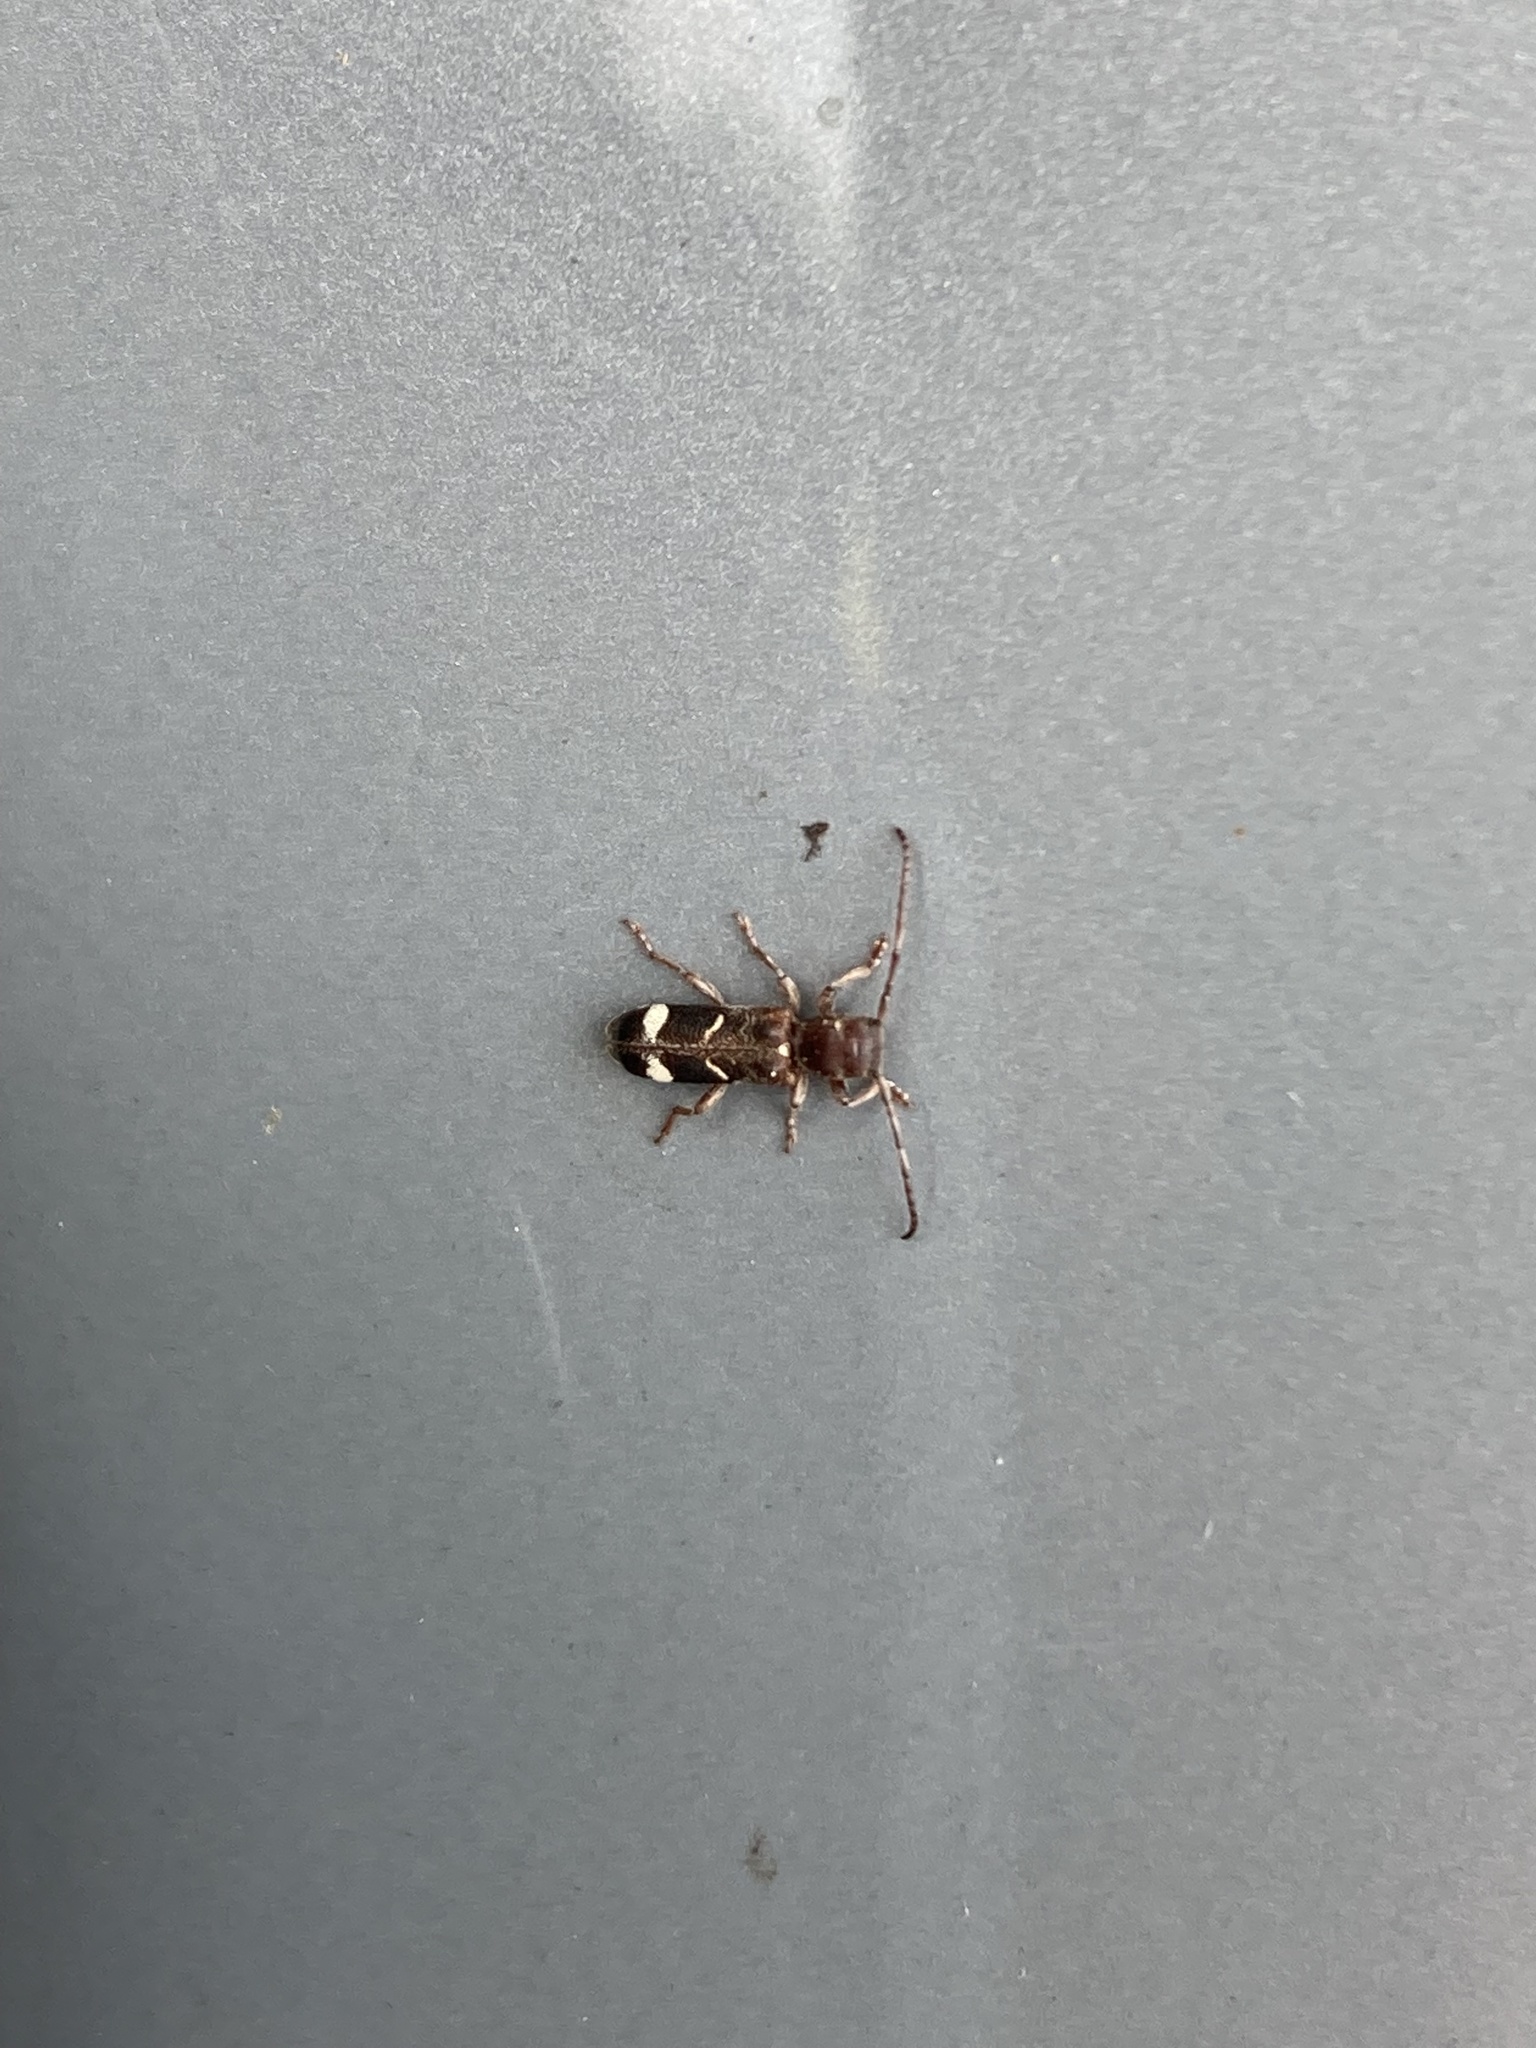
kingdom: Animalia
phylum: Arthropoda
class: Insecta
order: Coleoptera
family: Cerambycidae
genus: Psenocerus
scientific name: Psenocerus supernotatus
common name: Currant-tip borer
